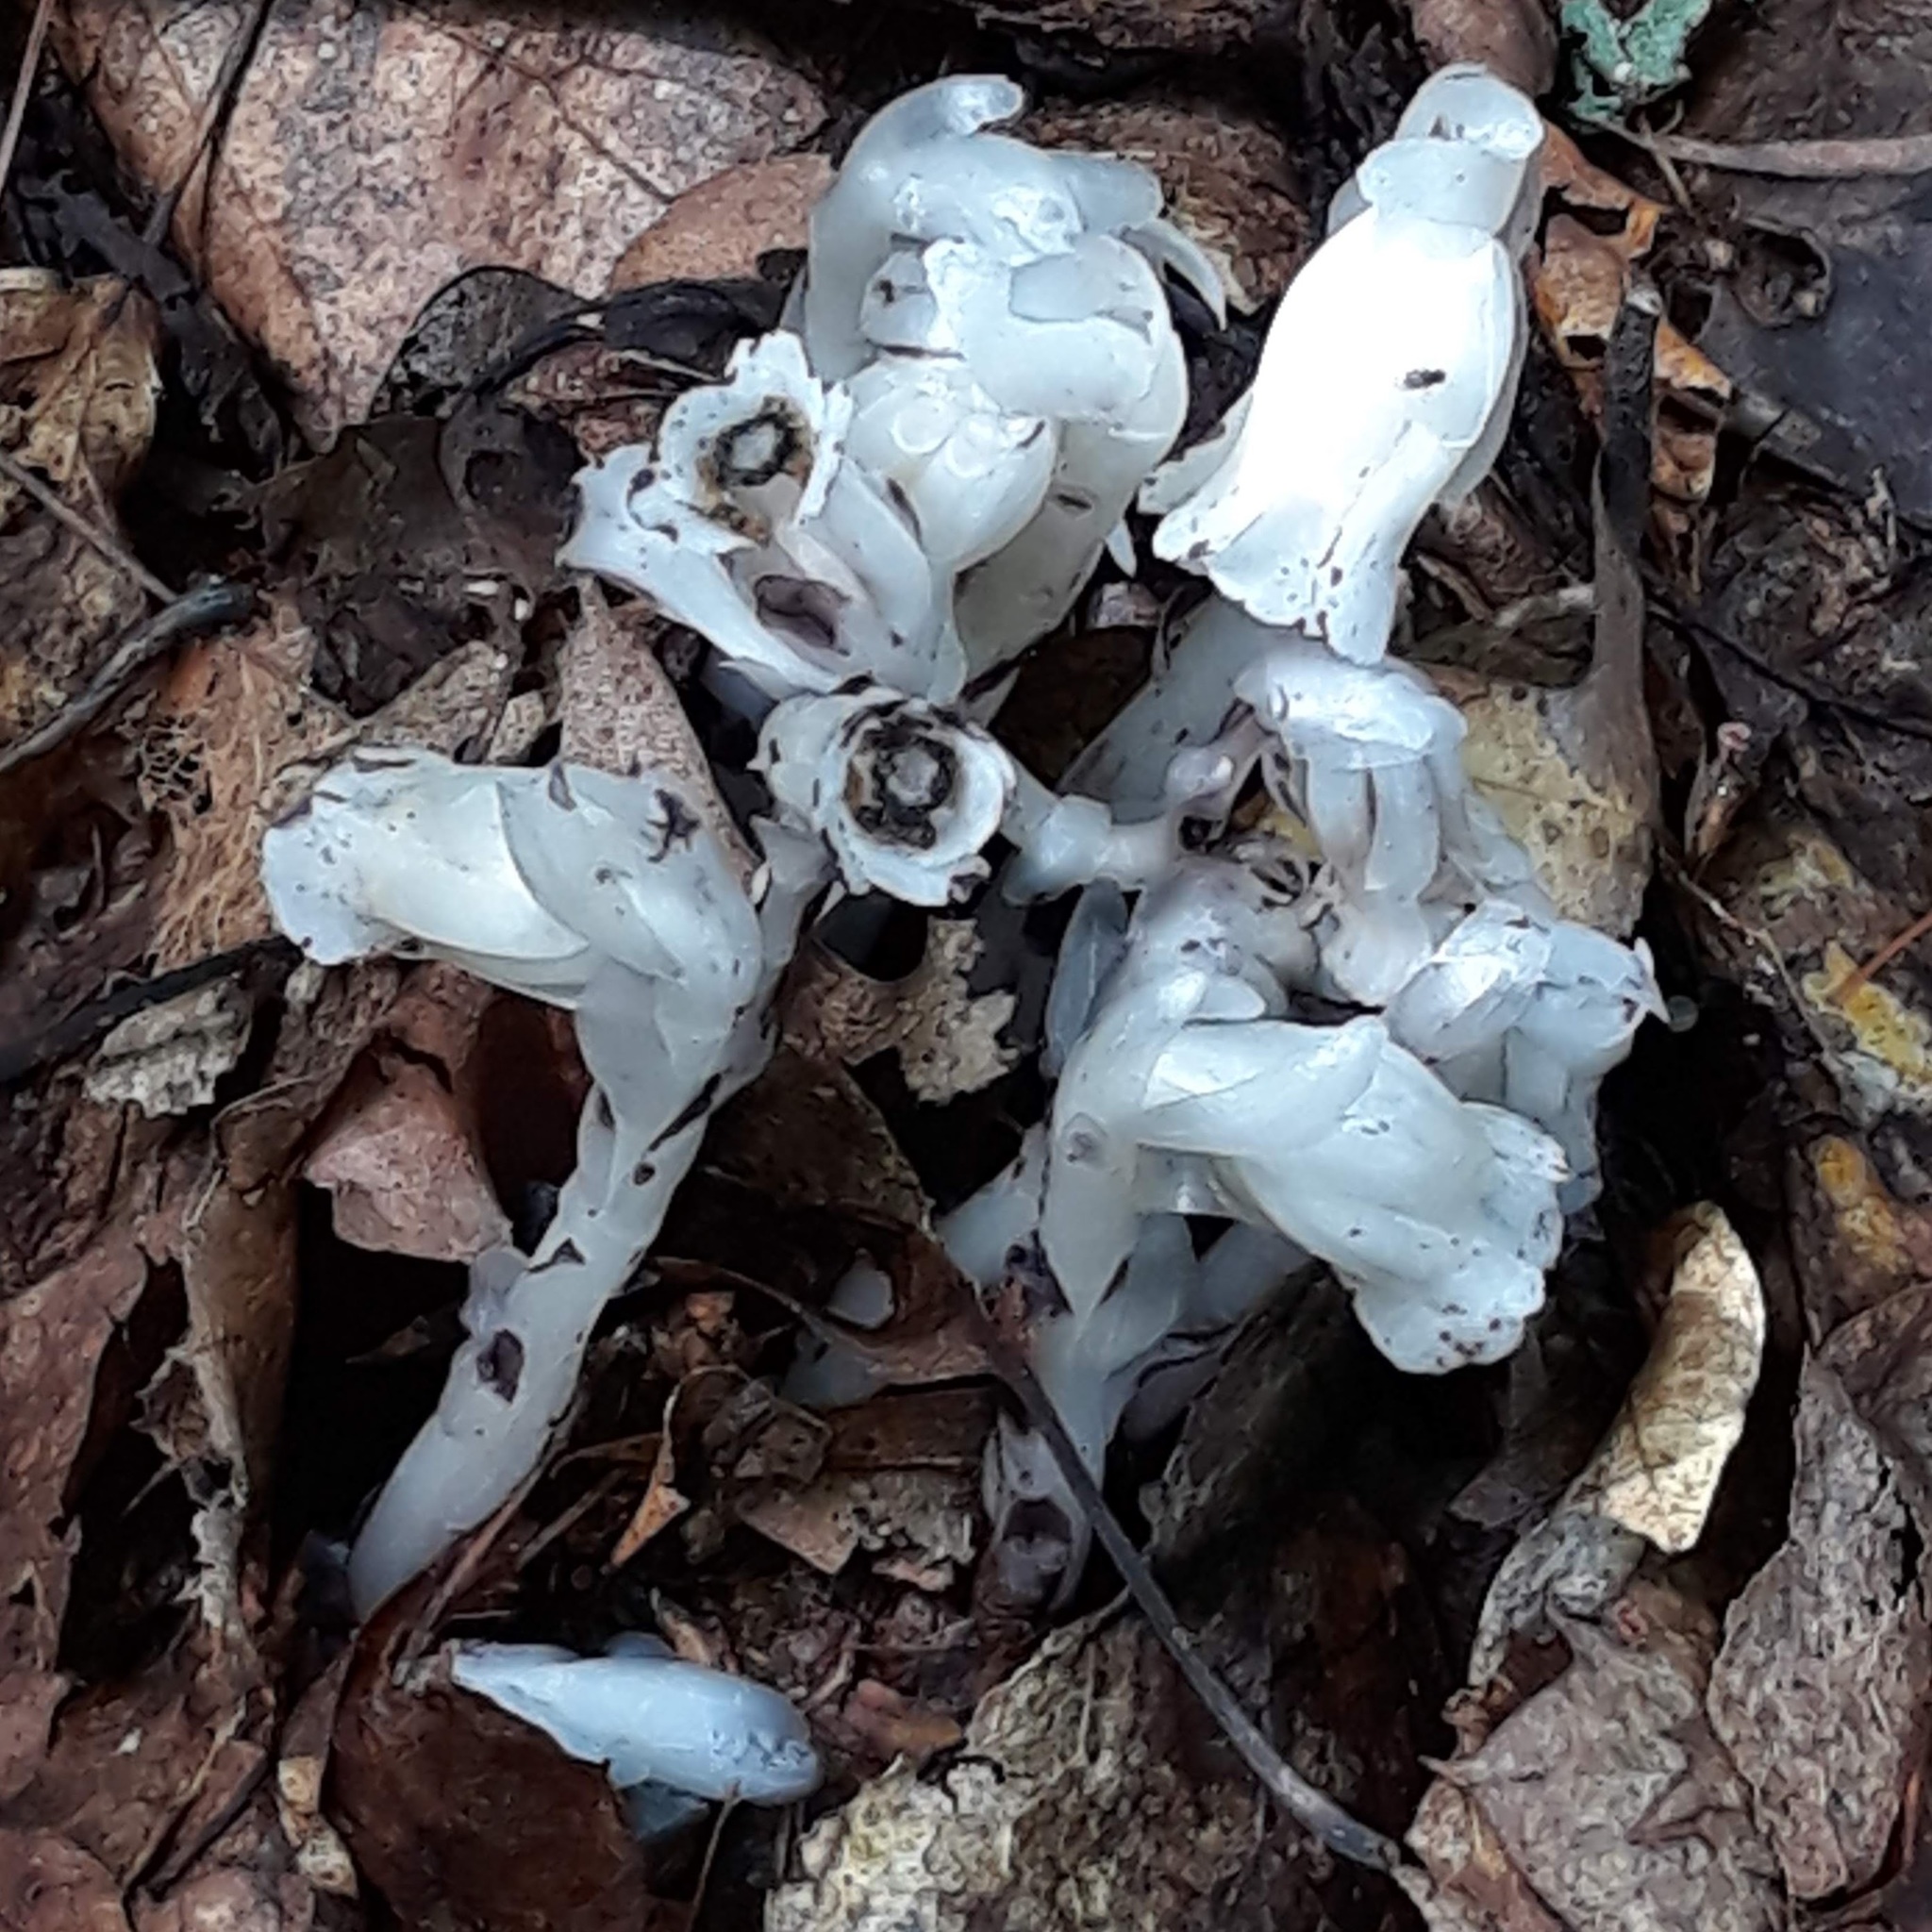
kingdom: Plantae
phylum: Tracheophyta
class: Magnoliopsida
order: Ericales
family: Ericaceae
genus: Monotropa
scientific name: Monotropa uniflora
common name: Convulsion root
